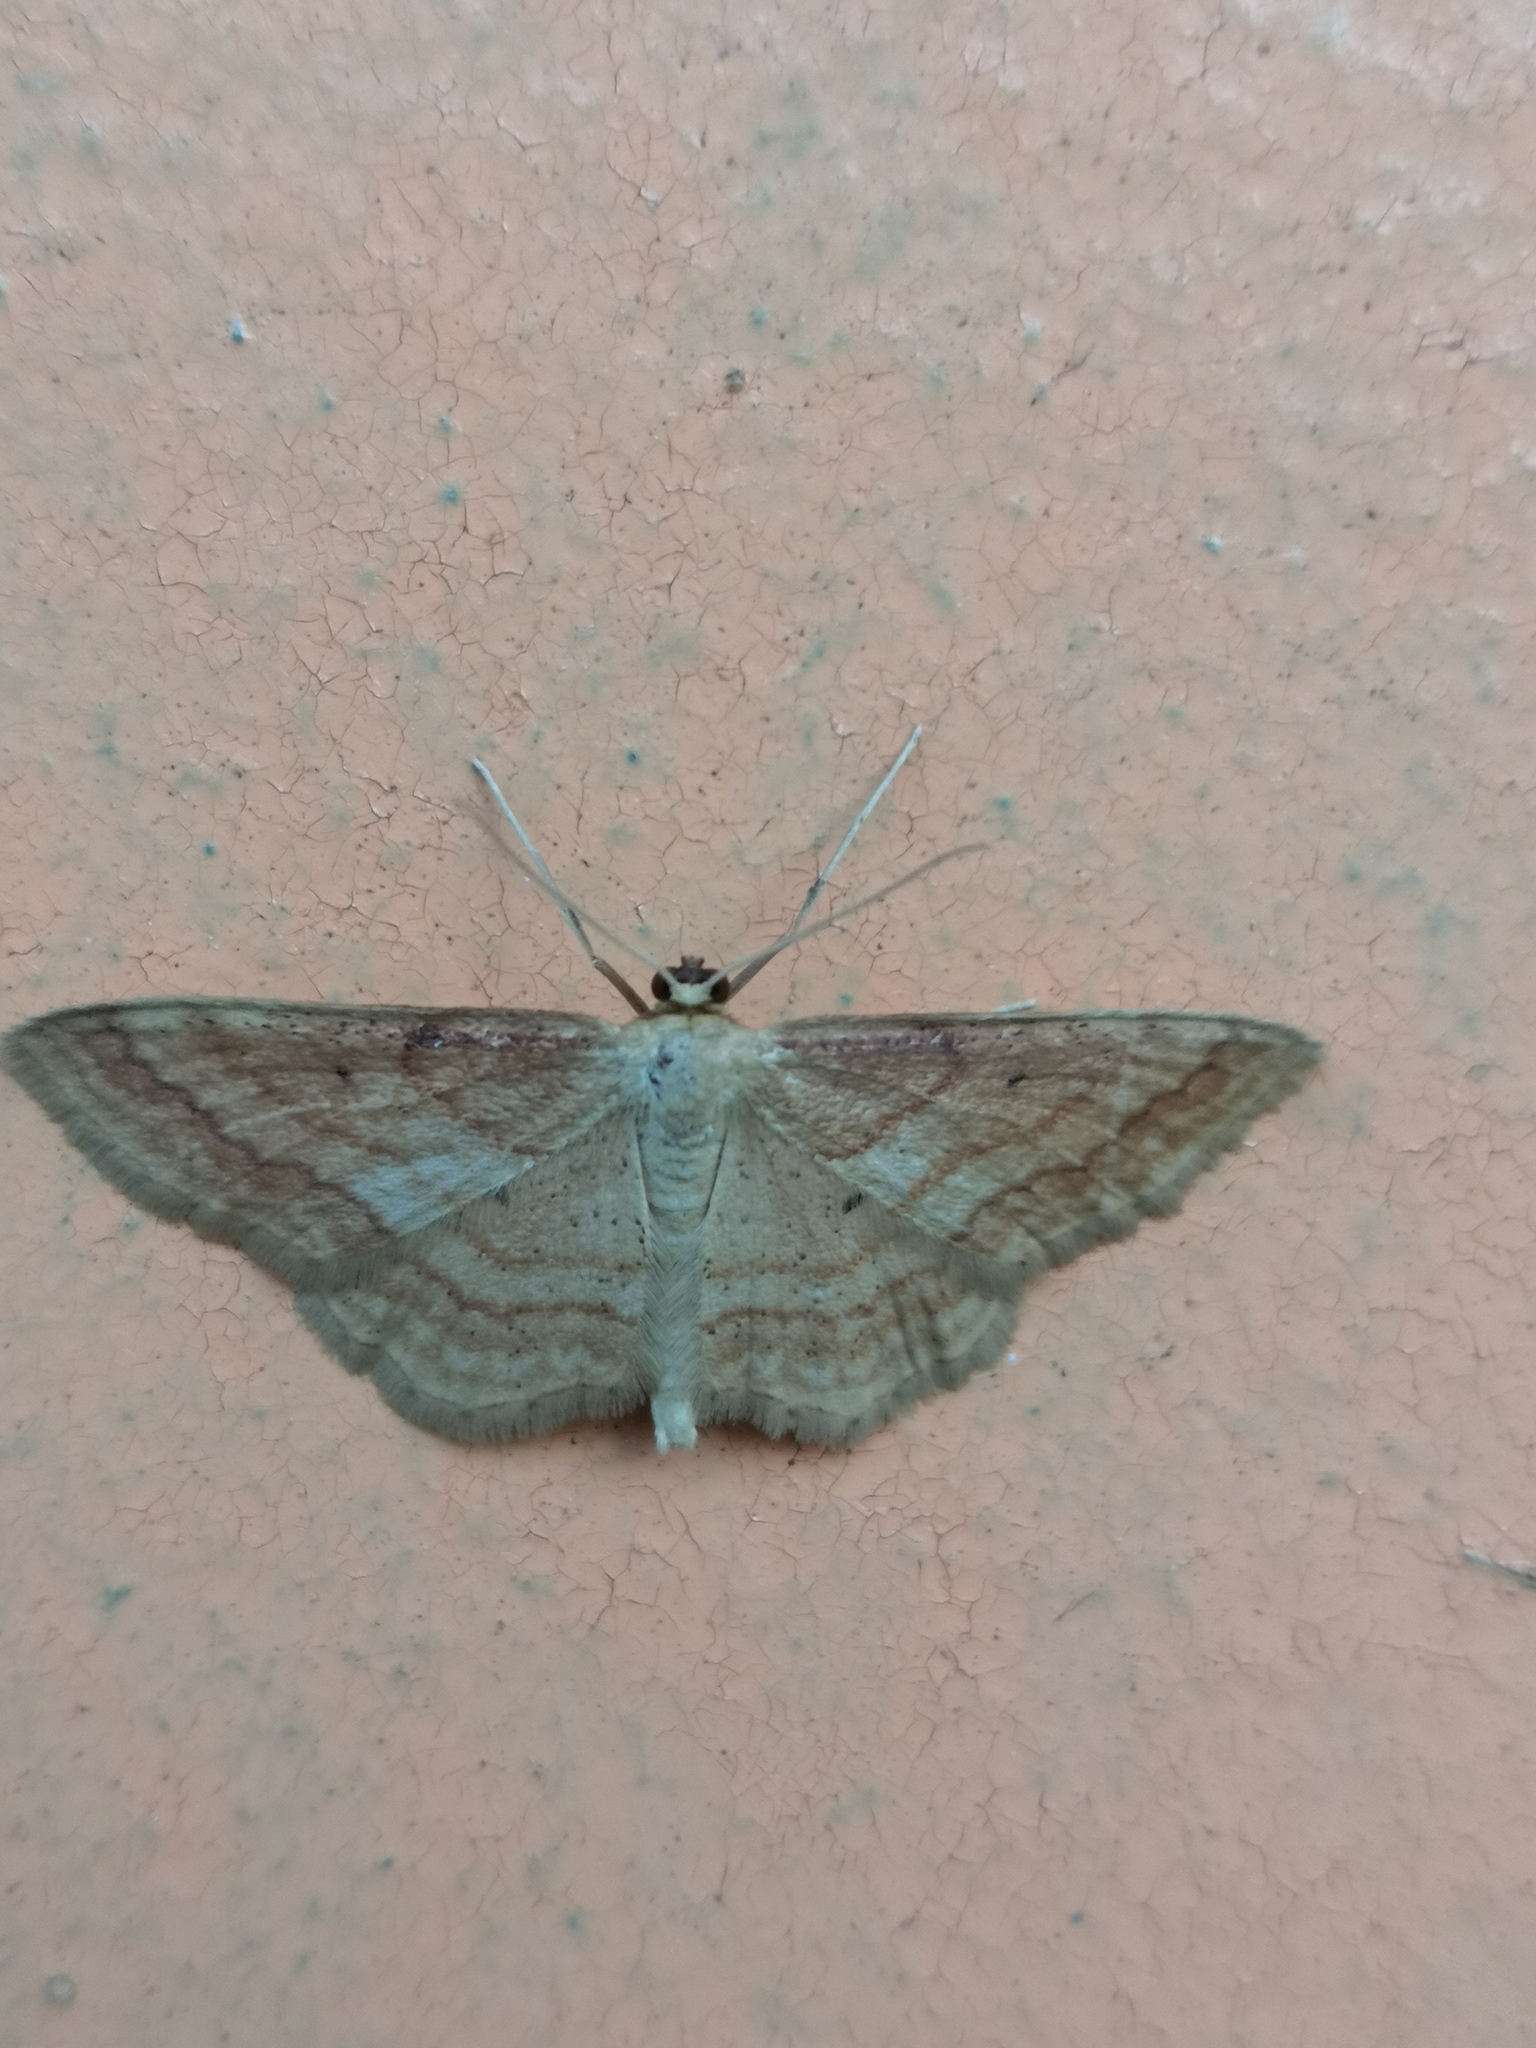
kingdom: Animalia
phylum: Arthropoda
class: Insecta
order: Lepidoptera
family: Geometridae
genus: Idaea
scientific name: Idaea rufaria
